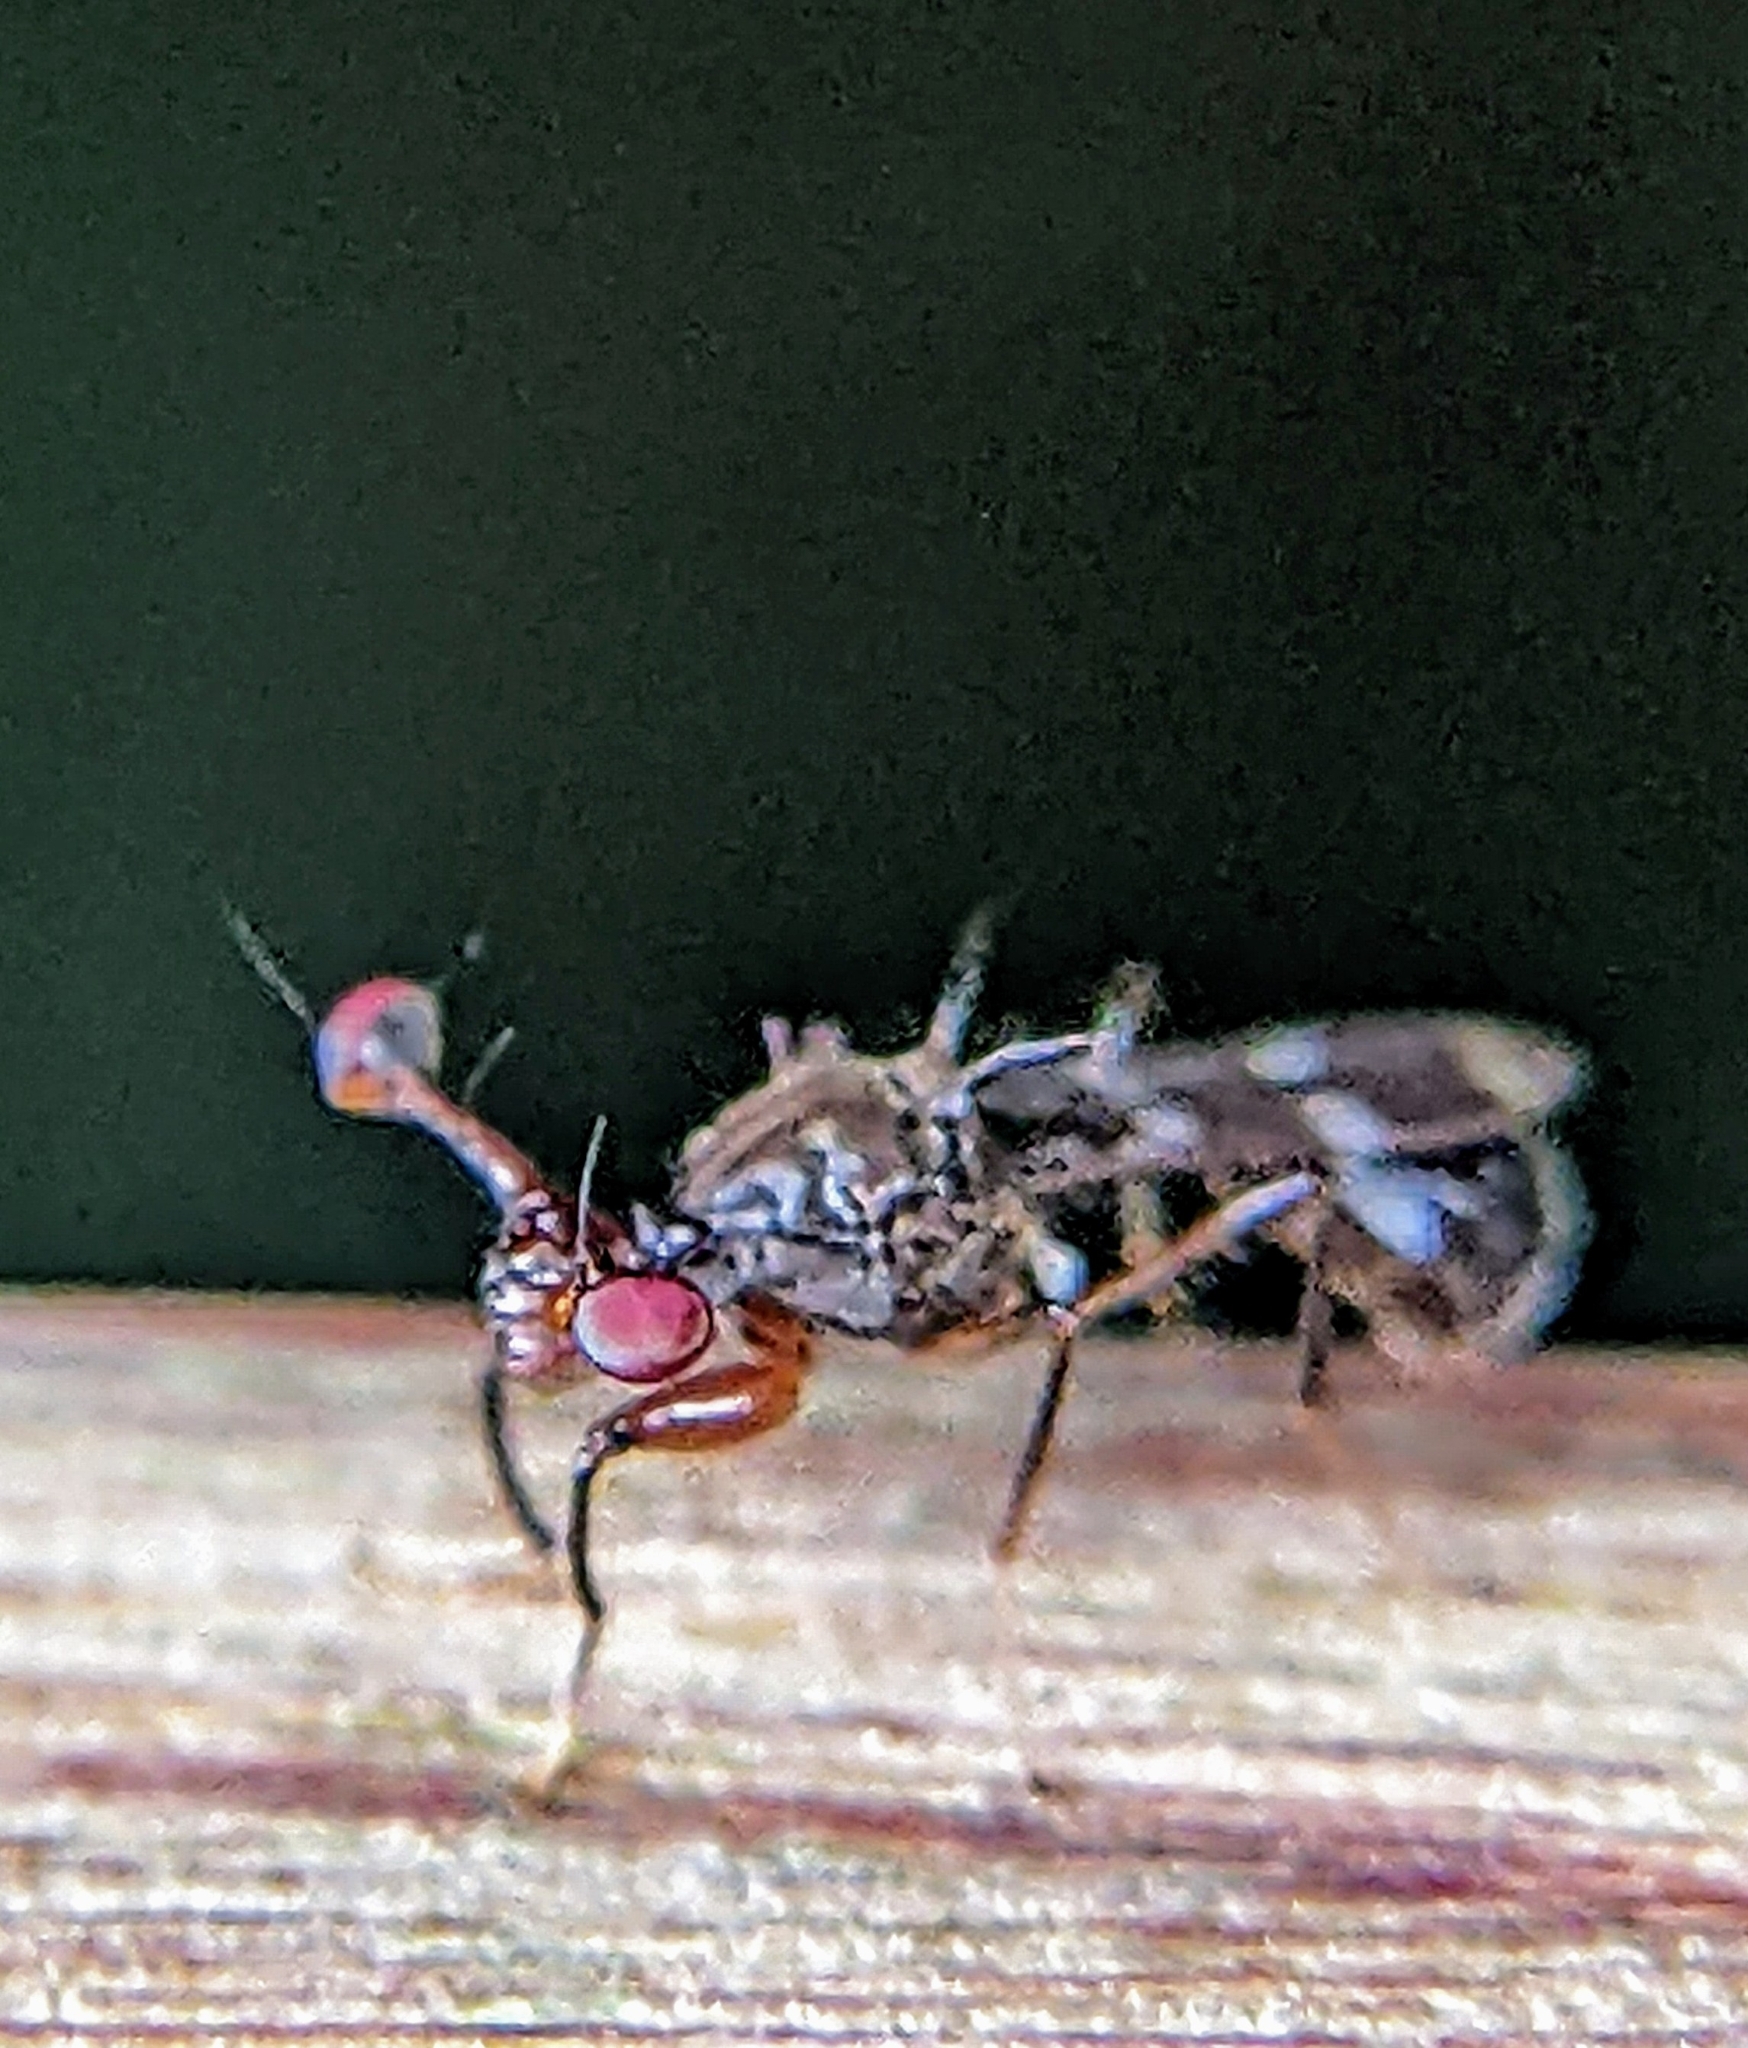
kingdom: Animalia
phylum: Arthropoda
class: Insecta
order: Diptera
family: Diopsidae
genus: Megalabops
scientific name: Megalabops
